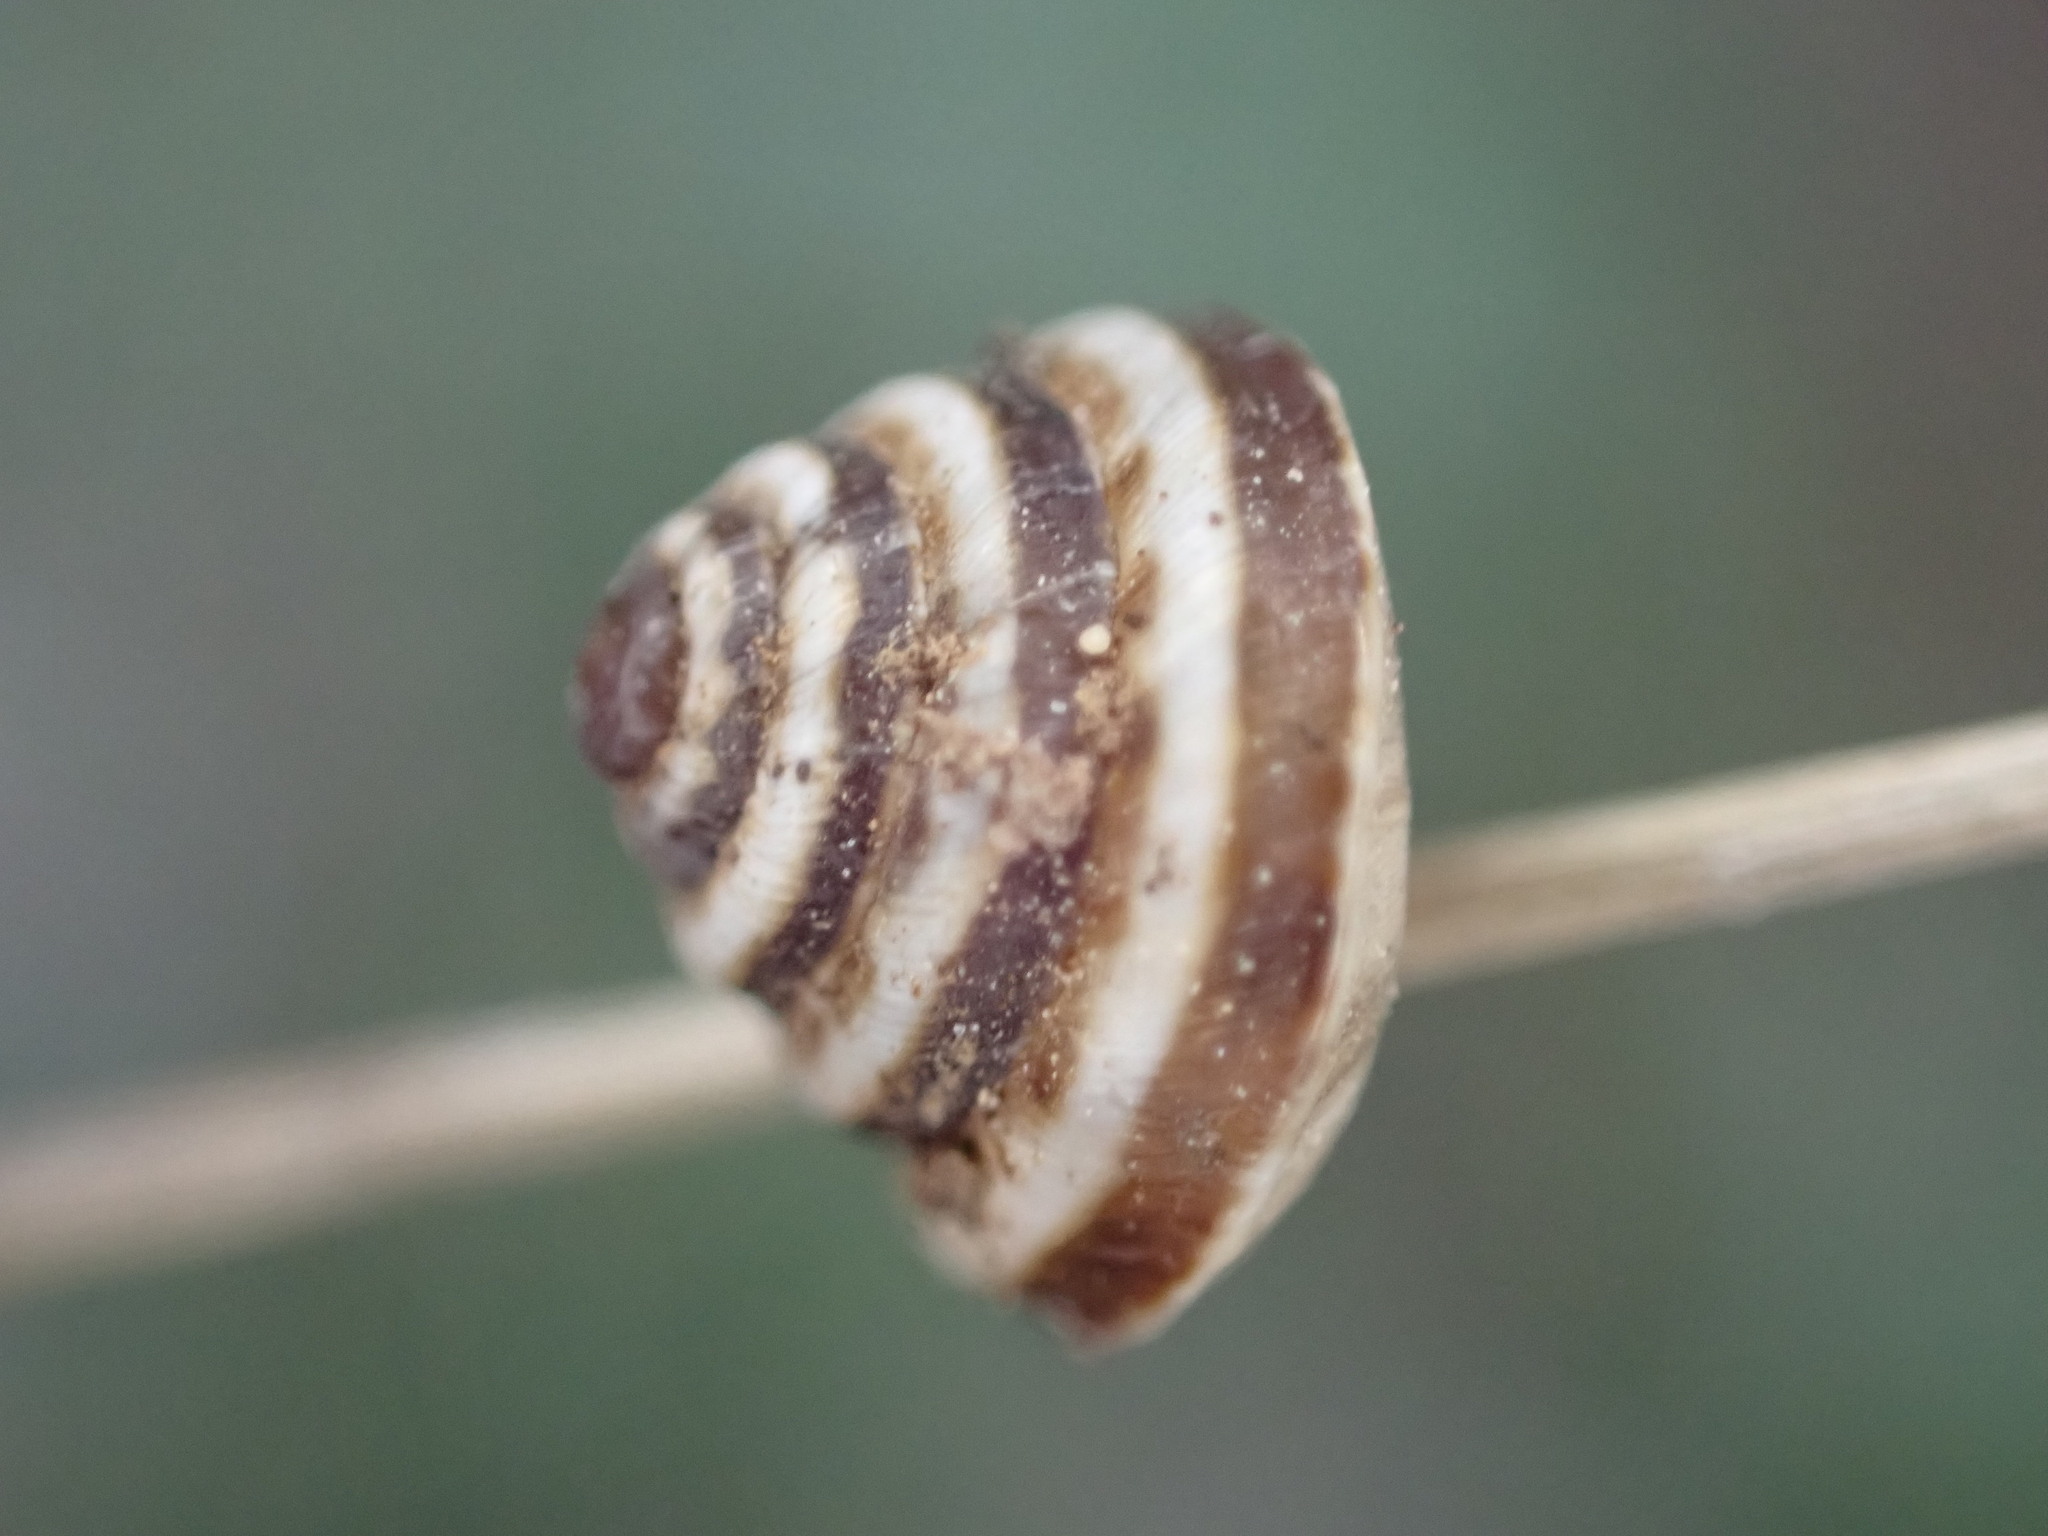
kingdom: Animalia
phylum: Mollusca
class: Gastropoda
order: Stylommatophora
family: Geomitridae
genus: Trochoidea
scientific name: Trochoidea trochoides
